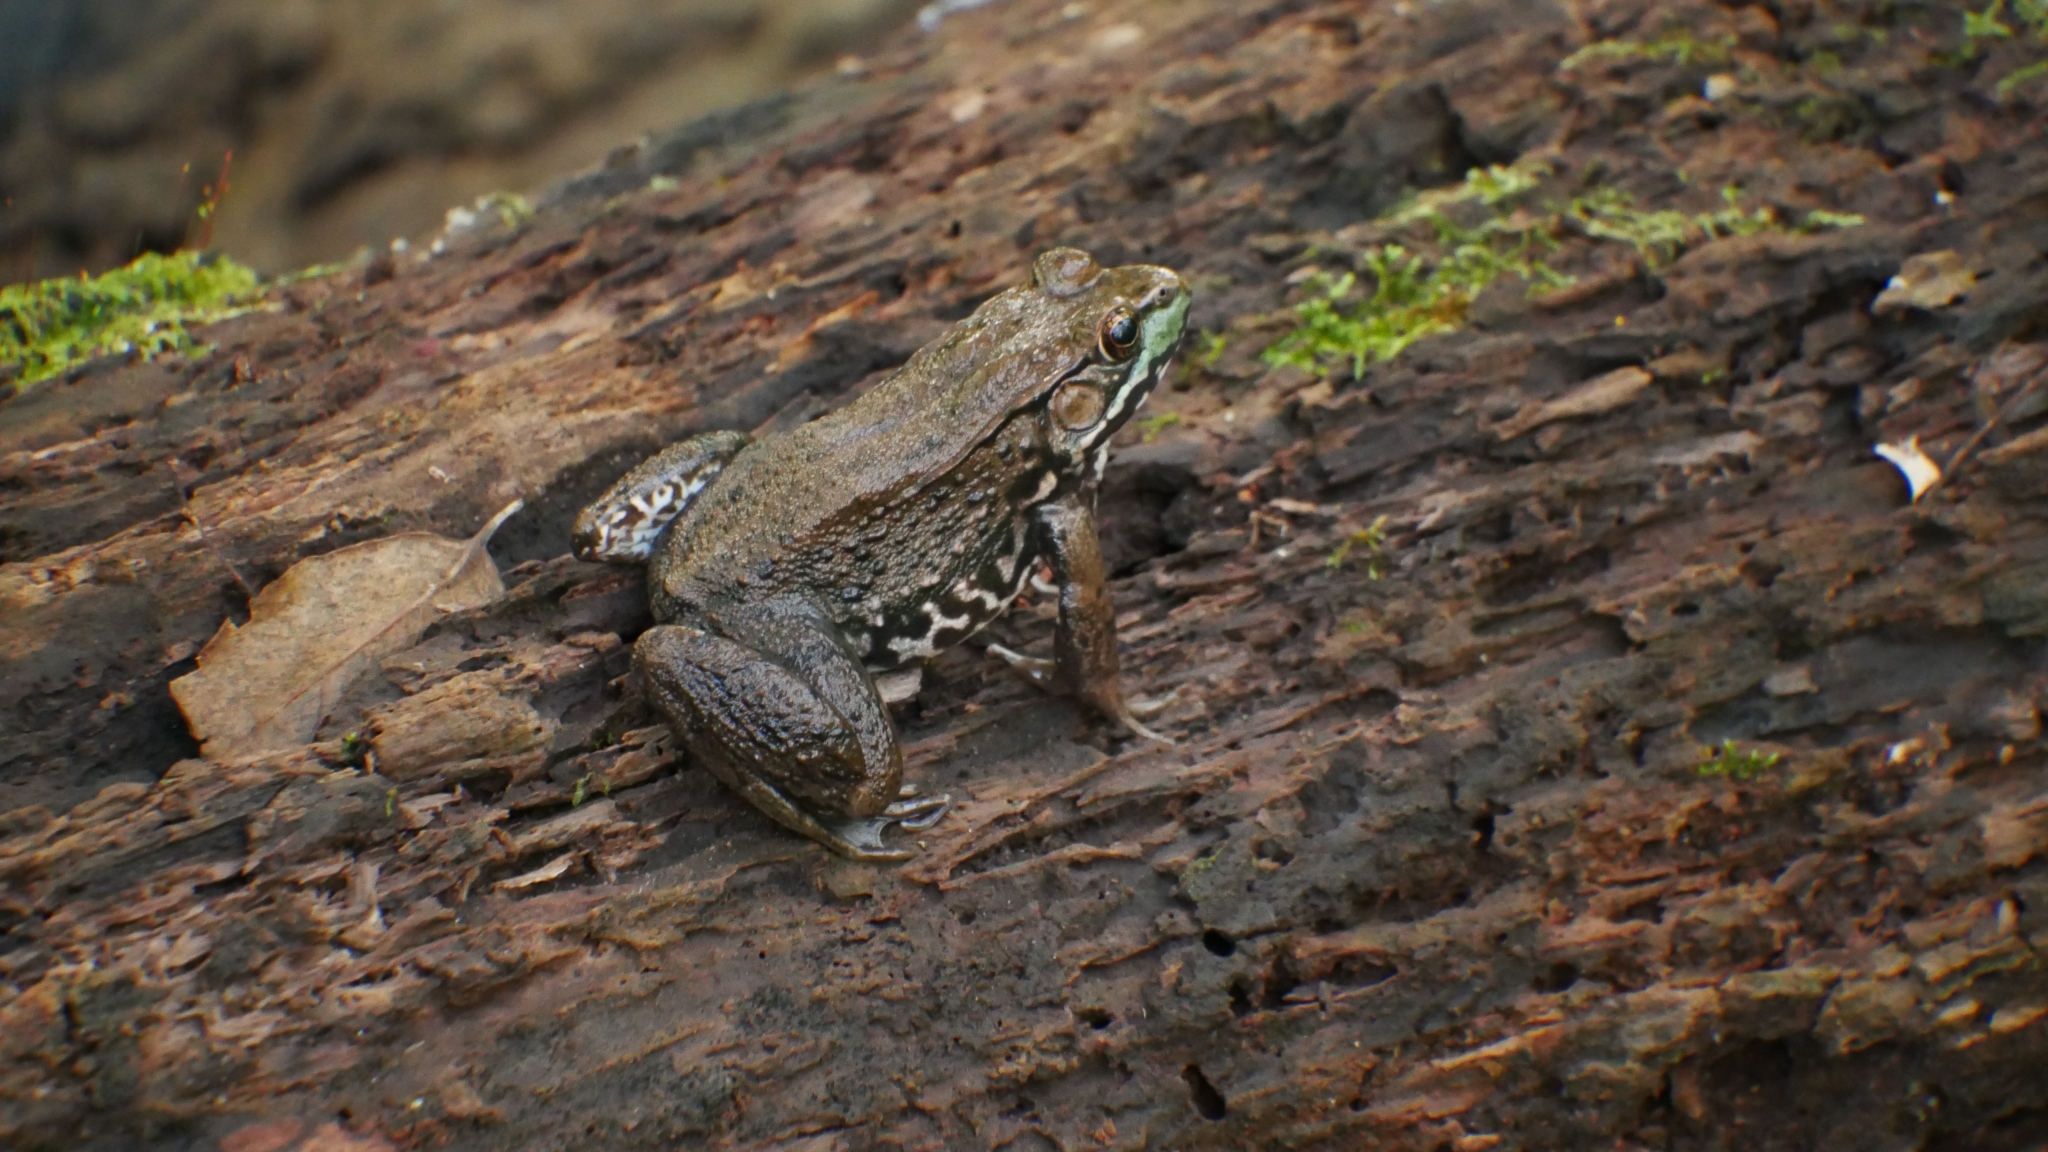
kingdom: Animalia
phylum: Chordata
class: Amphibia
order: Anura
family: Ranidae
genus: Lithobates
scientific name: Lithobates clamitans
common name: Green frog
